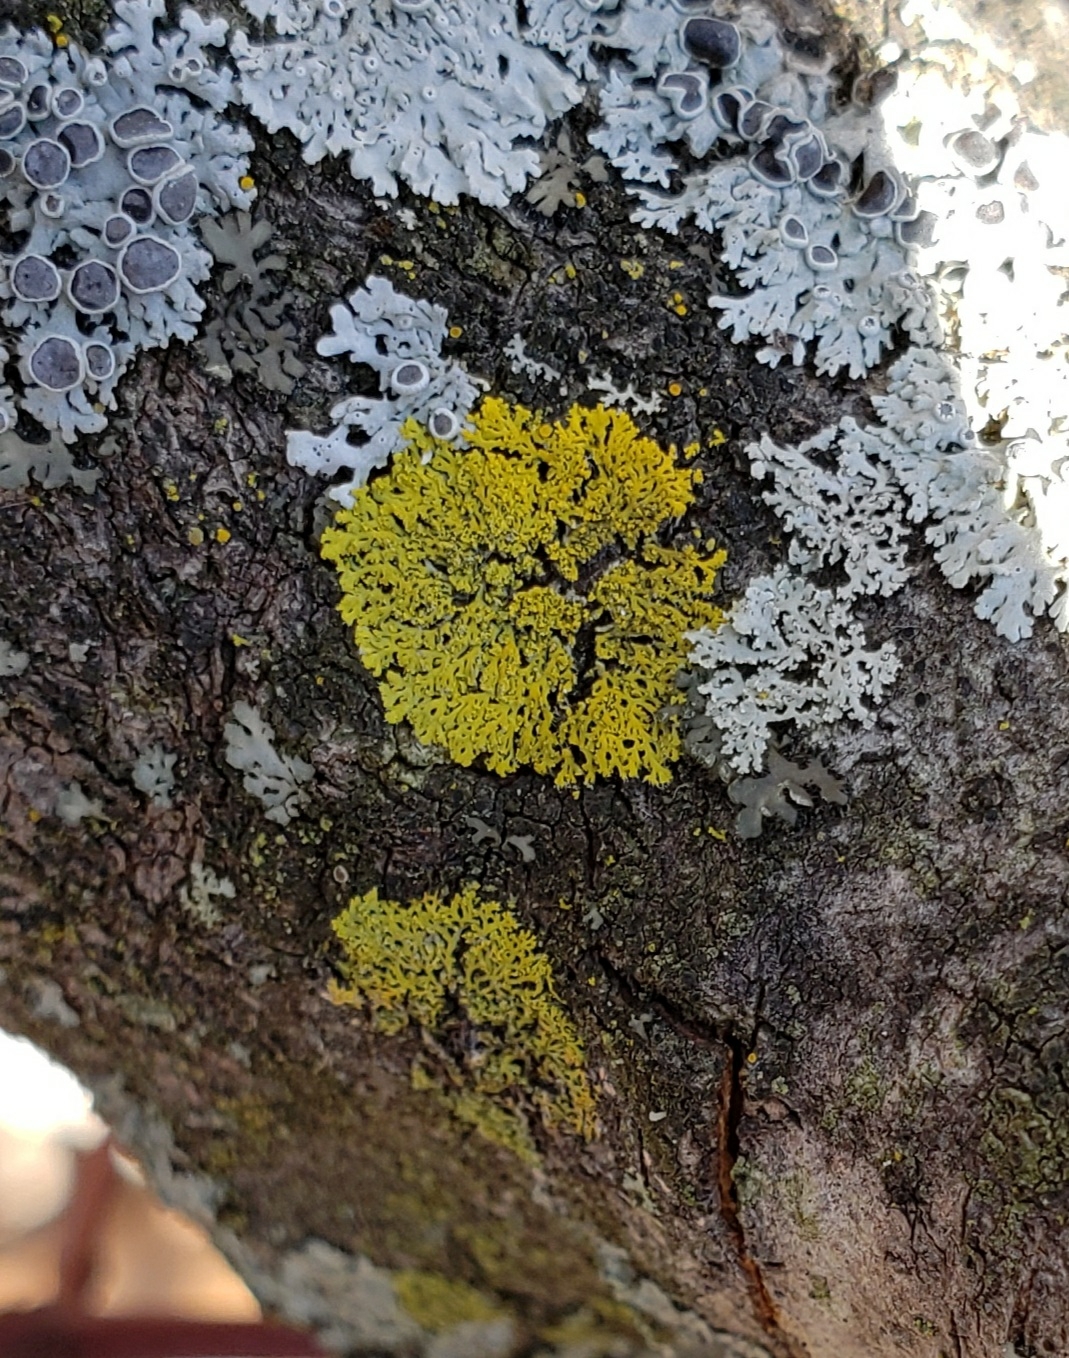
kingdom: Fungi
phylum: Ascomycota
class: Candelariomycetes
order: Candelariales
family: Candelariaceae
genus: Candelaria
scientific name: Candelaria concolor
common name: Candleflame lichen
